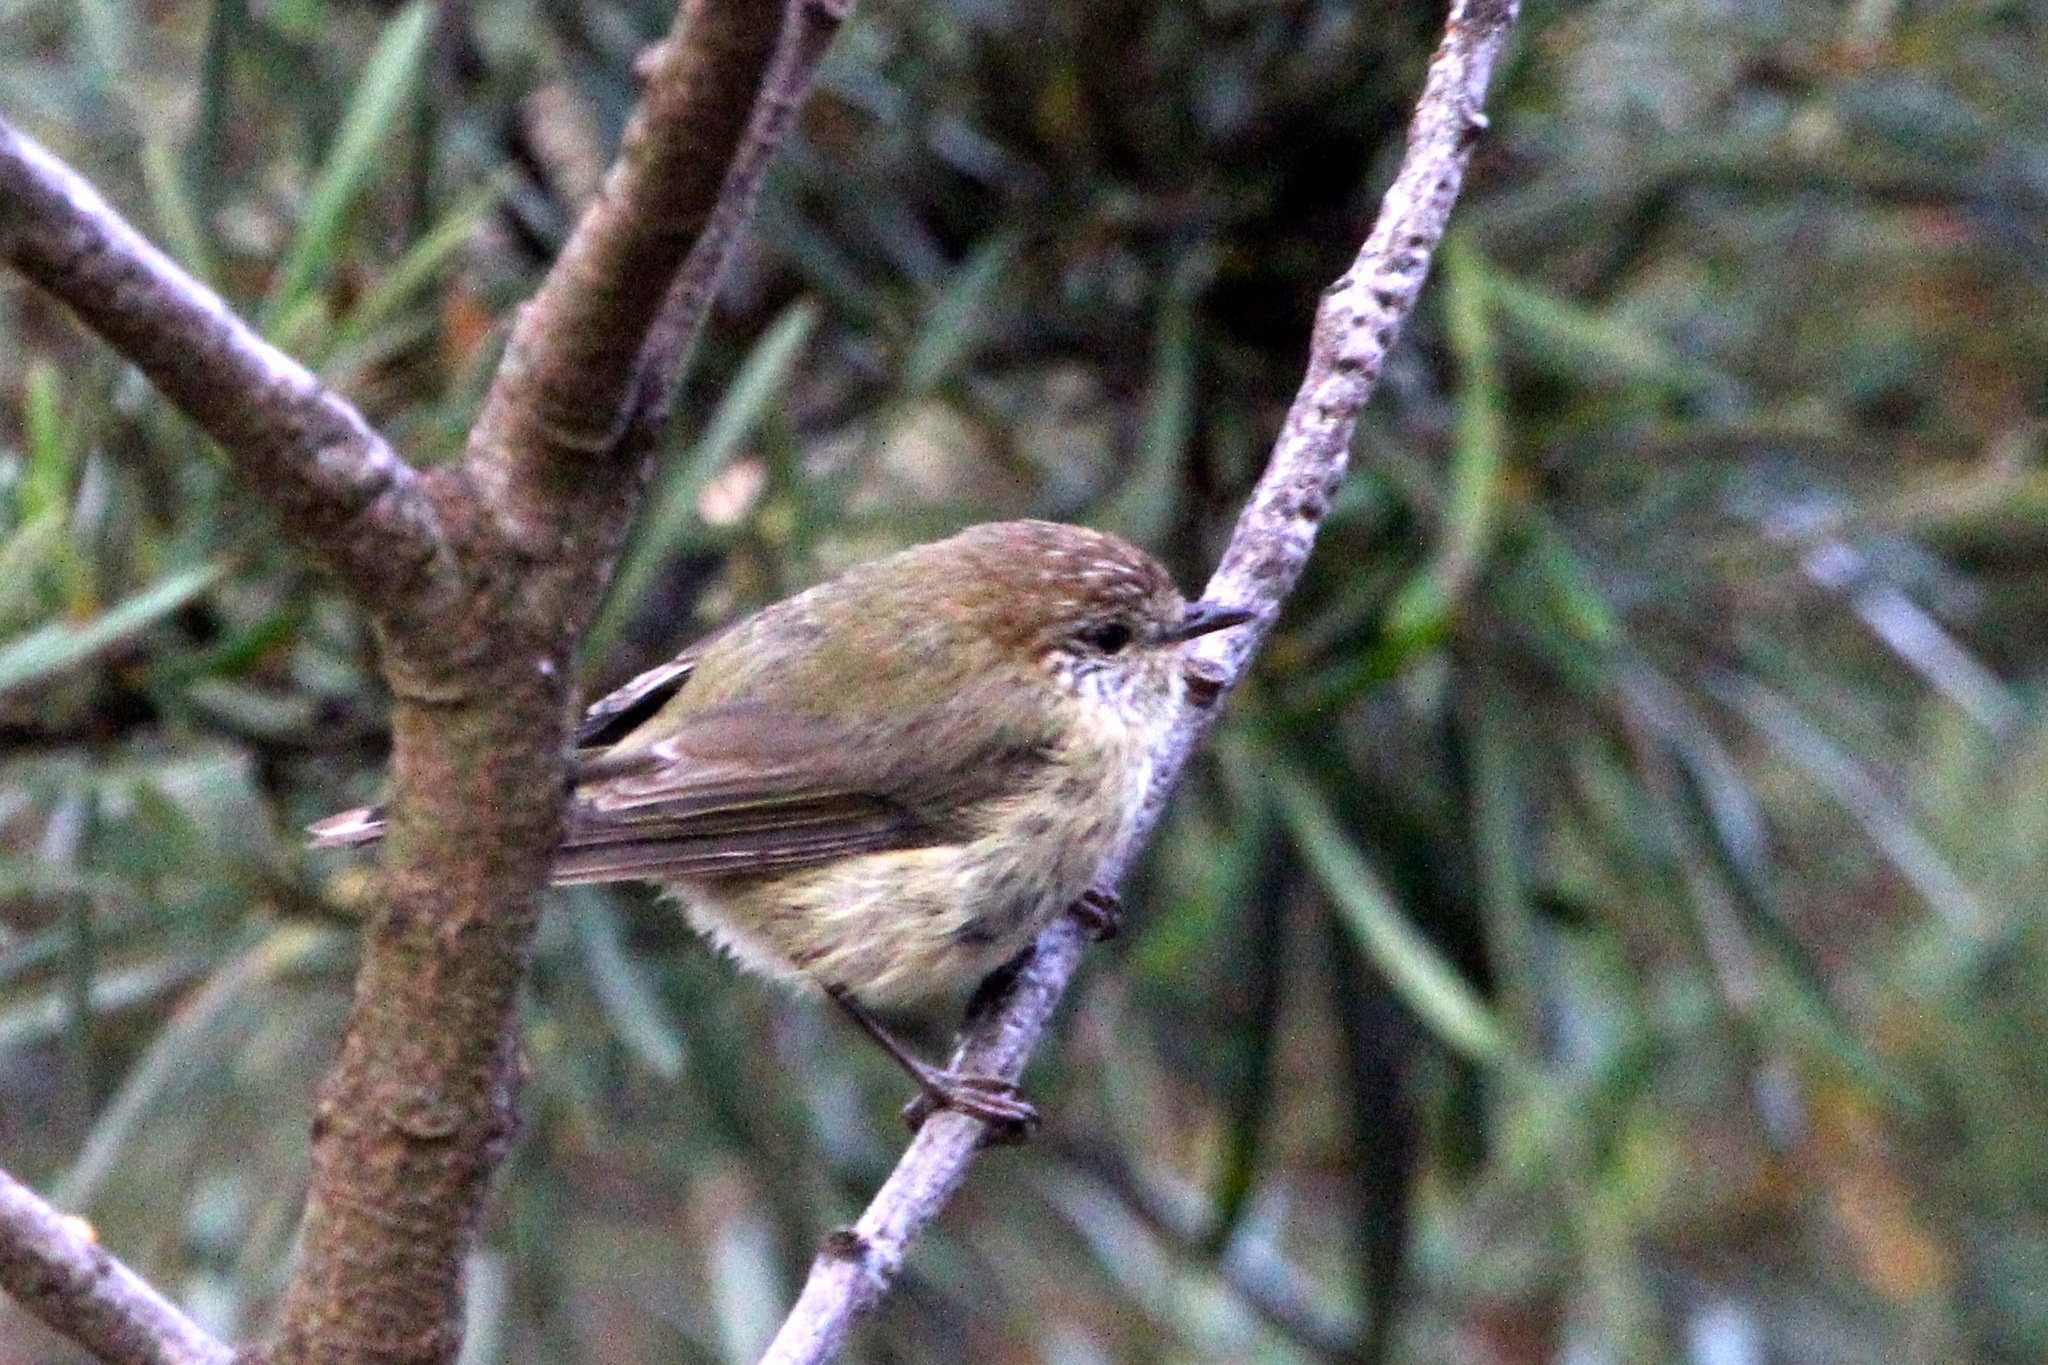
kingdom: Animalia
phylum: Chordata
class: Aves
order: Passeriformes
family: Acanthizidae
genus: Acanthiza
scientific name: Acanthiza pusilla
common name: Brown thornbill
